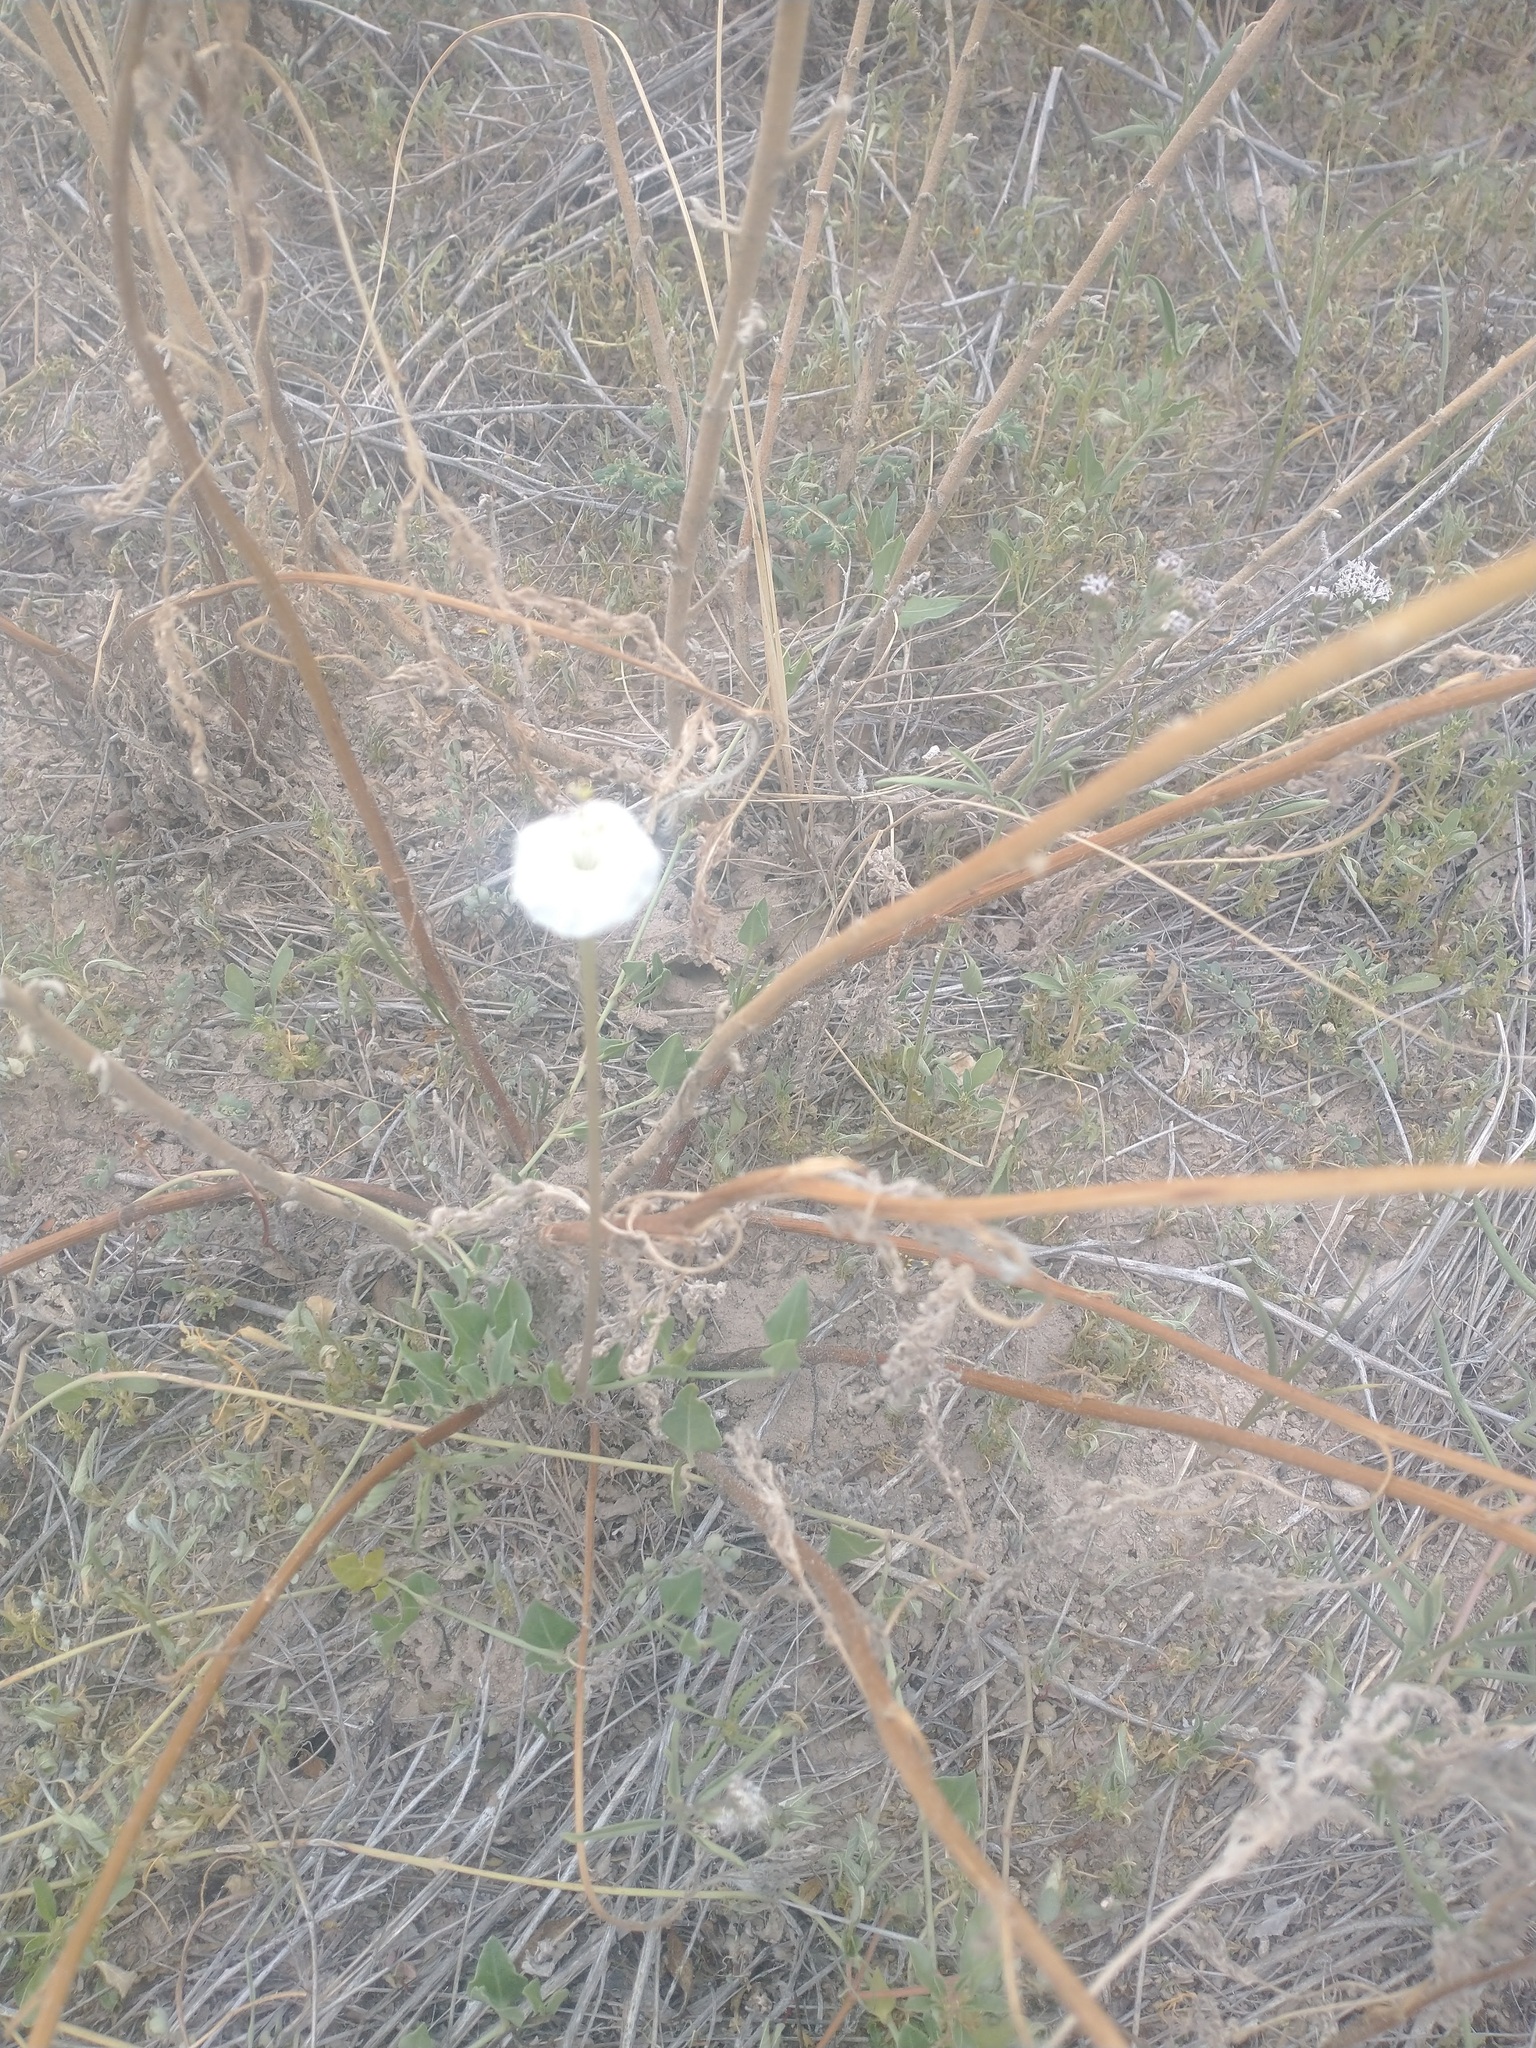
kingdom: Plantae
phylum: Tracheophyta
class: Magnoliopsida
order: Caryophyllales
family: Nyctaginaceae
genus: Acleisanthes
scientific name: Acleisanthes longiflora
